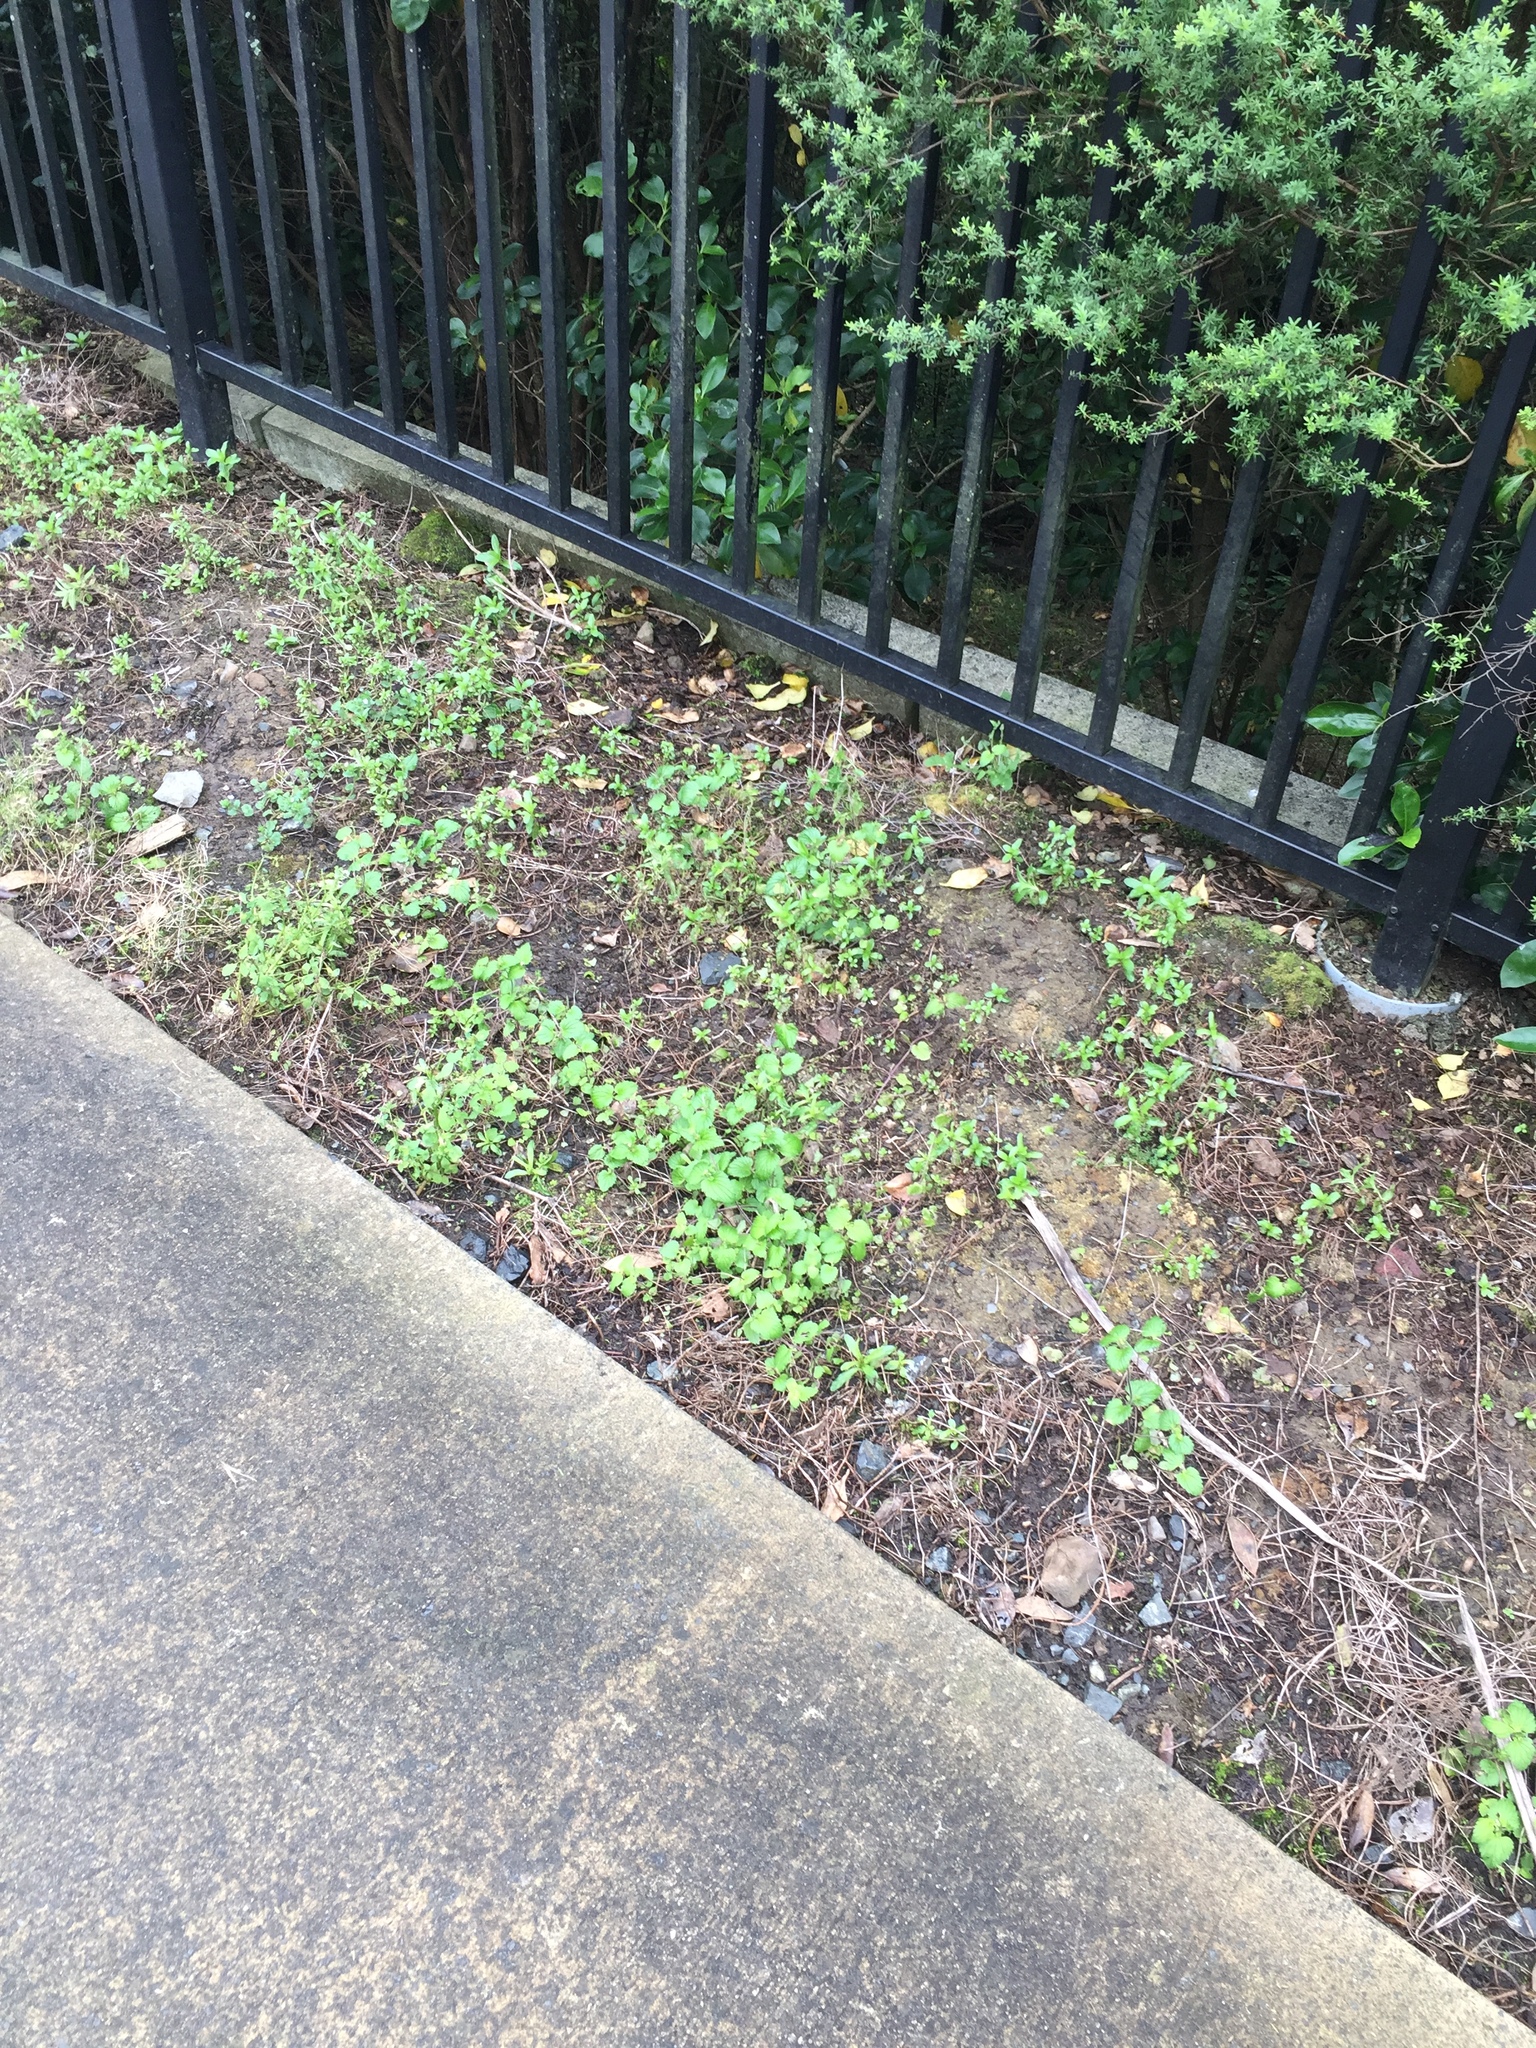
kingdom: Plantae
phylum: Tracheophyta
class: Magnoliopsida
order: Lamiales
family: Plantaginaceae
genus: Veronica
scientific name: Veronica javanica
